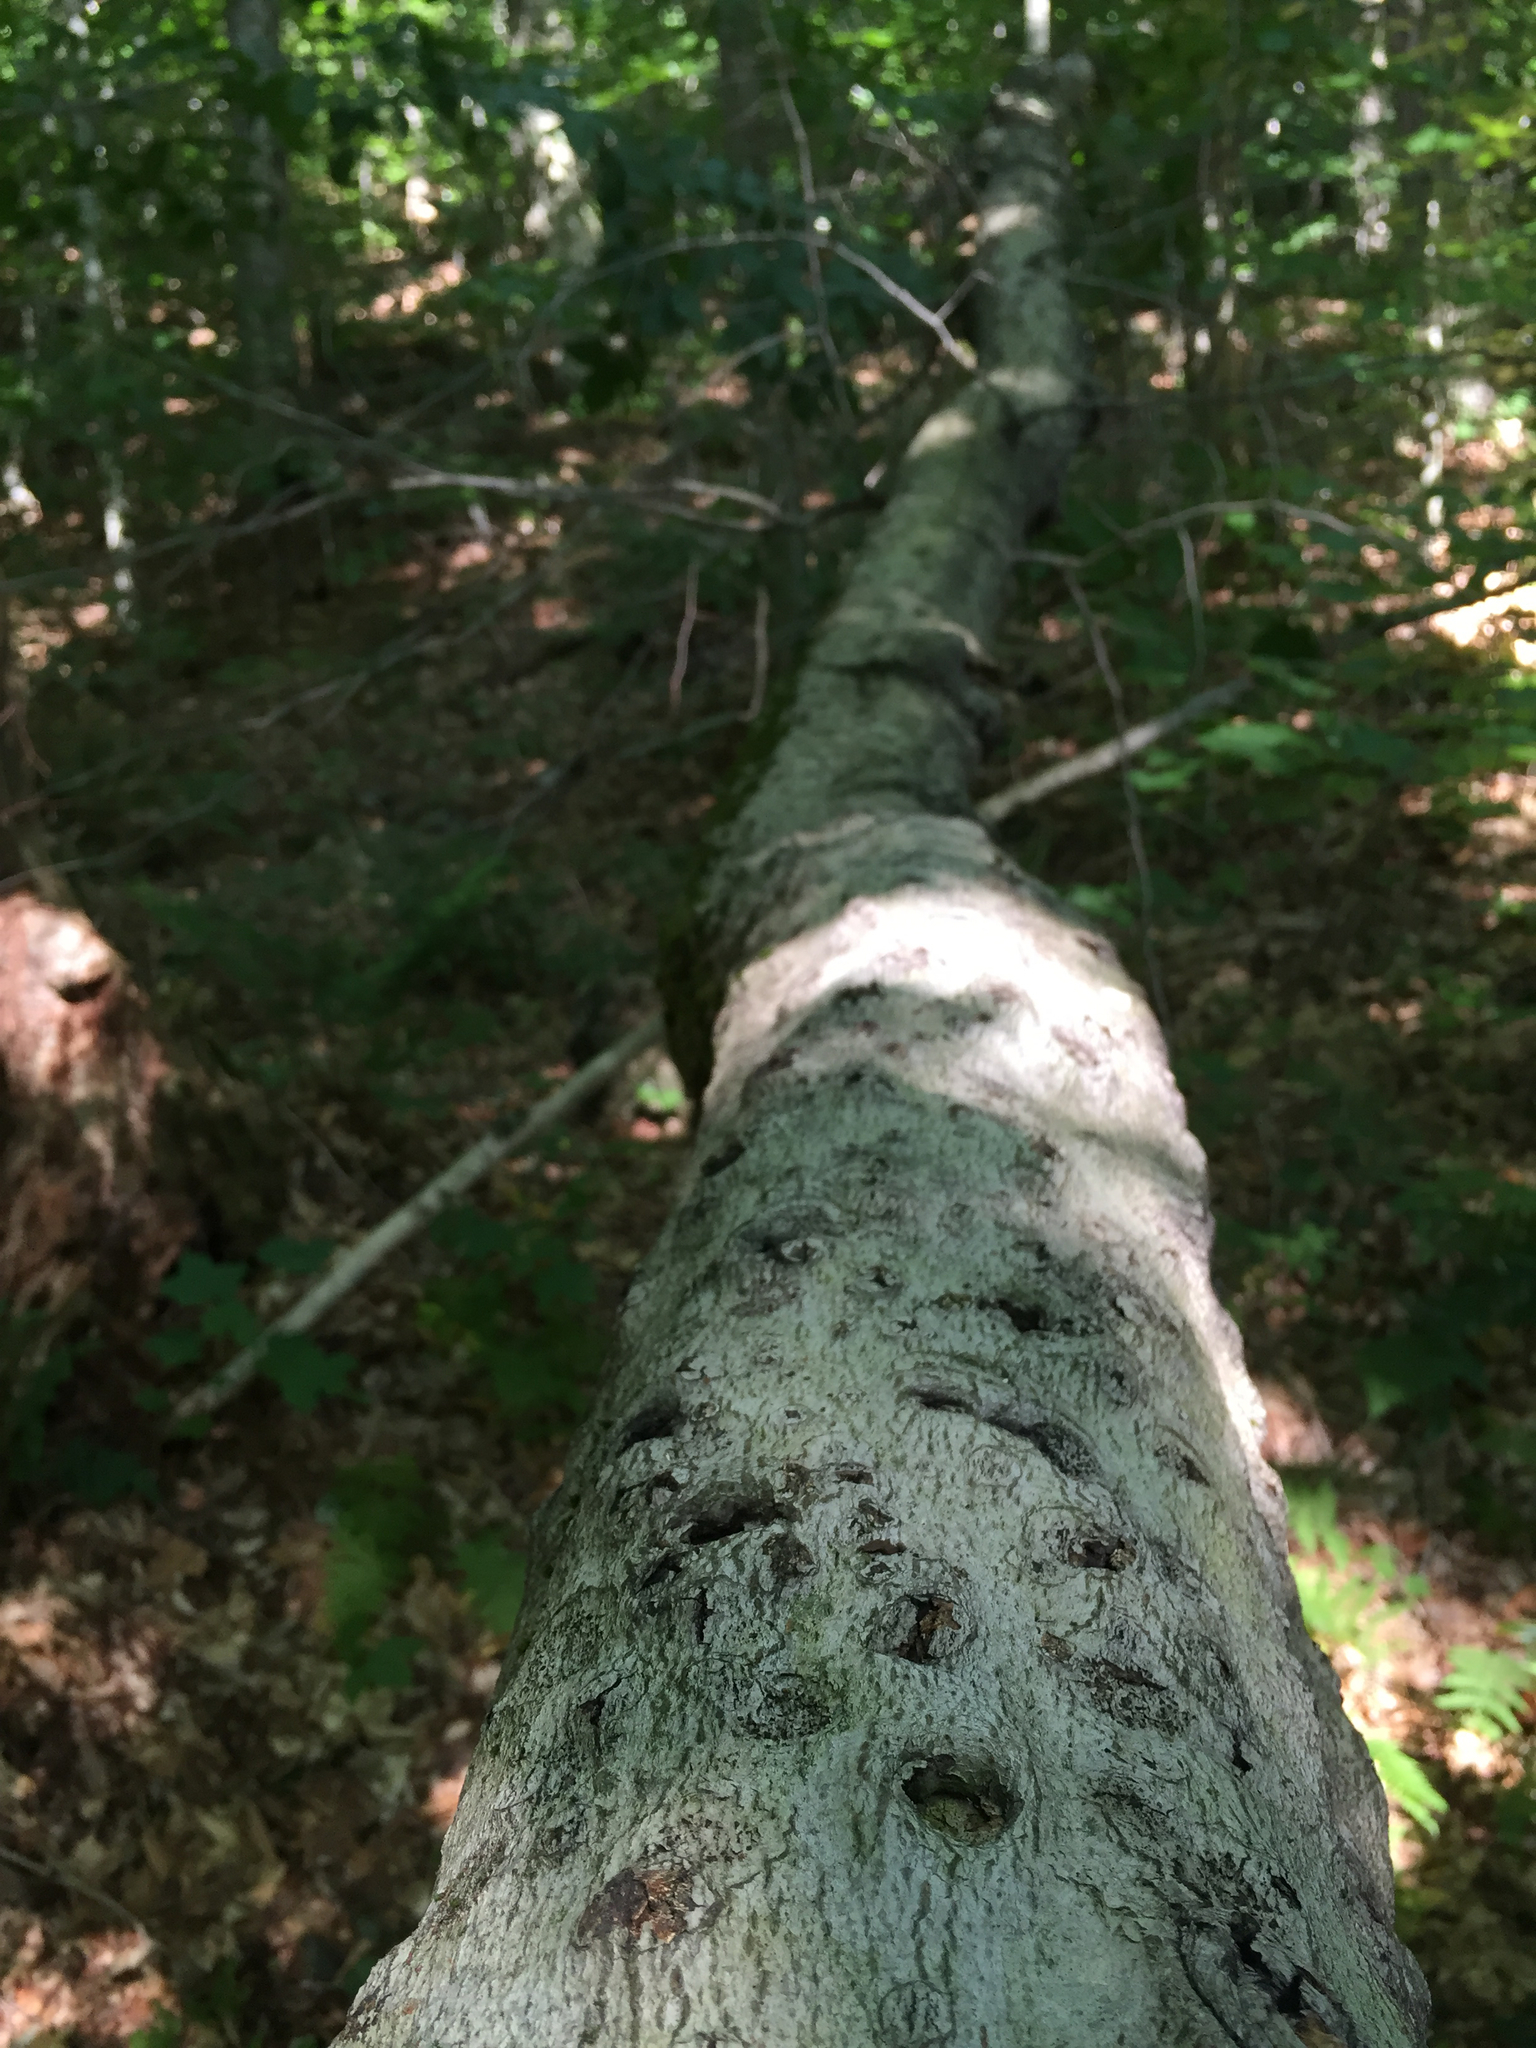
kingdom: Plantae
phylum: Tracheophyta
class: Magnoliopsida
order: Fagales
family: Fagaceae
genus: Fagus
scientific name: Fagus grandifolia
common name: American beech
